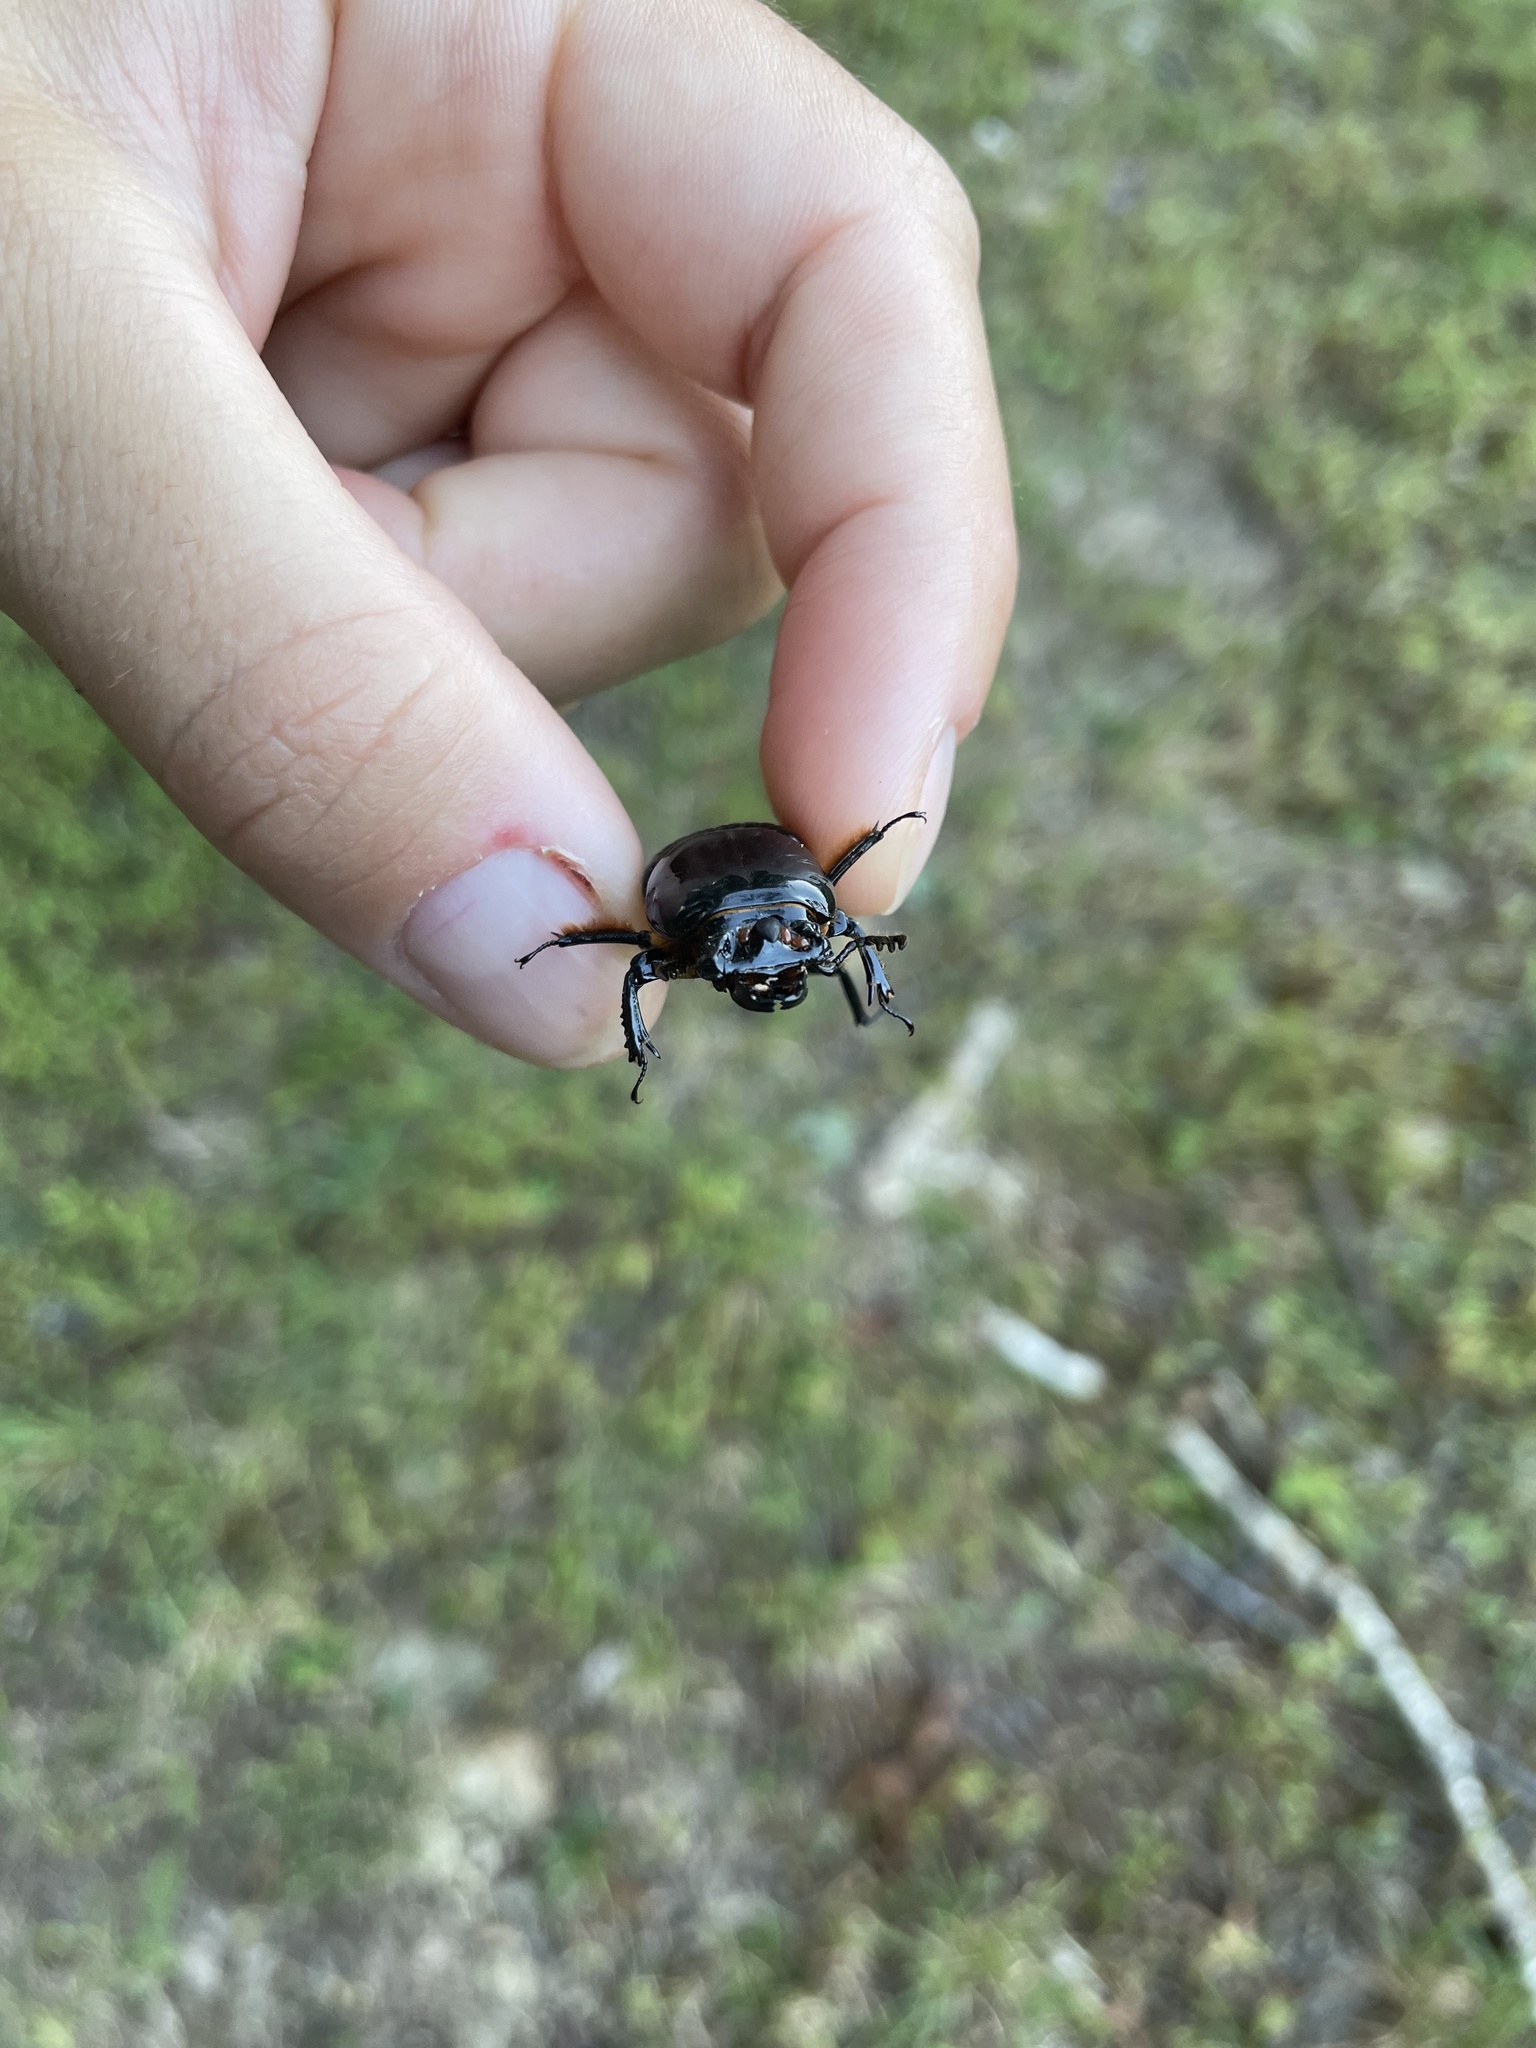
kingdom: Animalia
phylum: Arthropoda
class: Insecta
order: Coleoptera
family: Passalidae
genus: Odontotaenius
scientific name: Odontotaenius disjunctus
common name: Patent leather beetle
